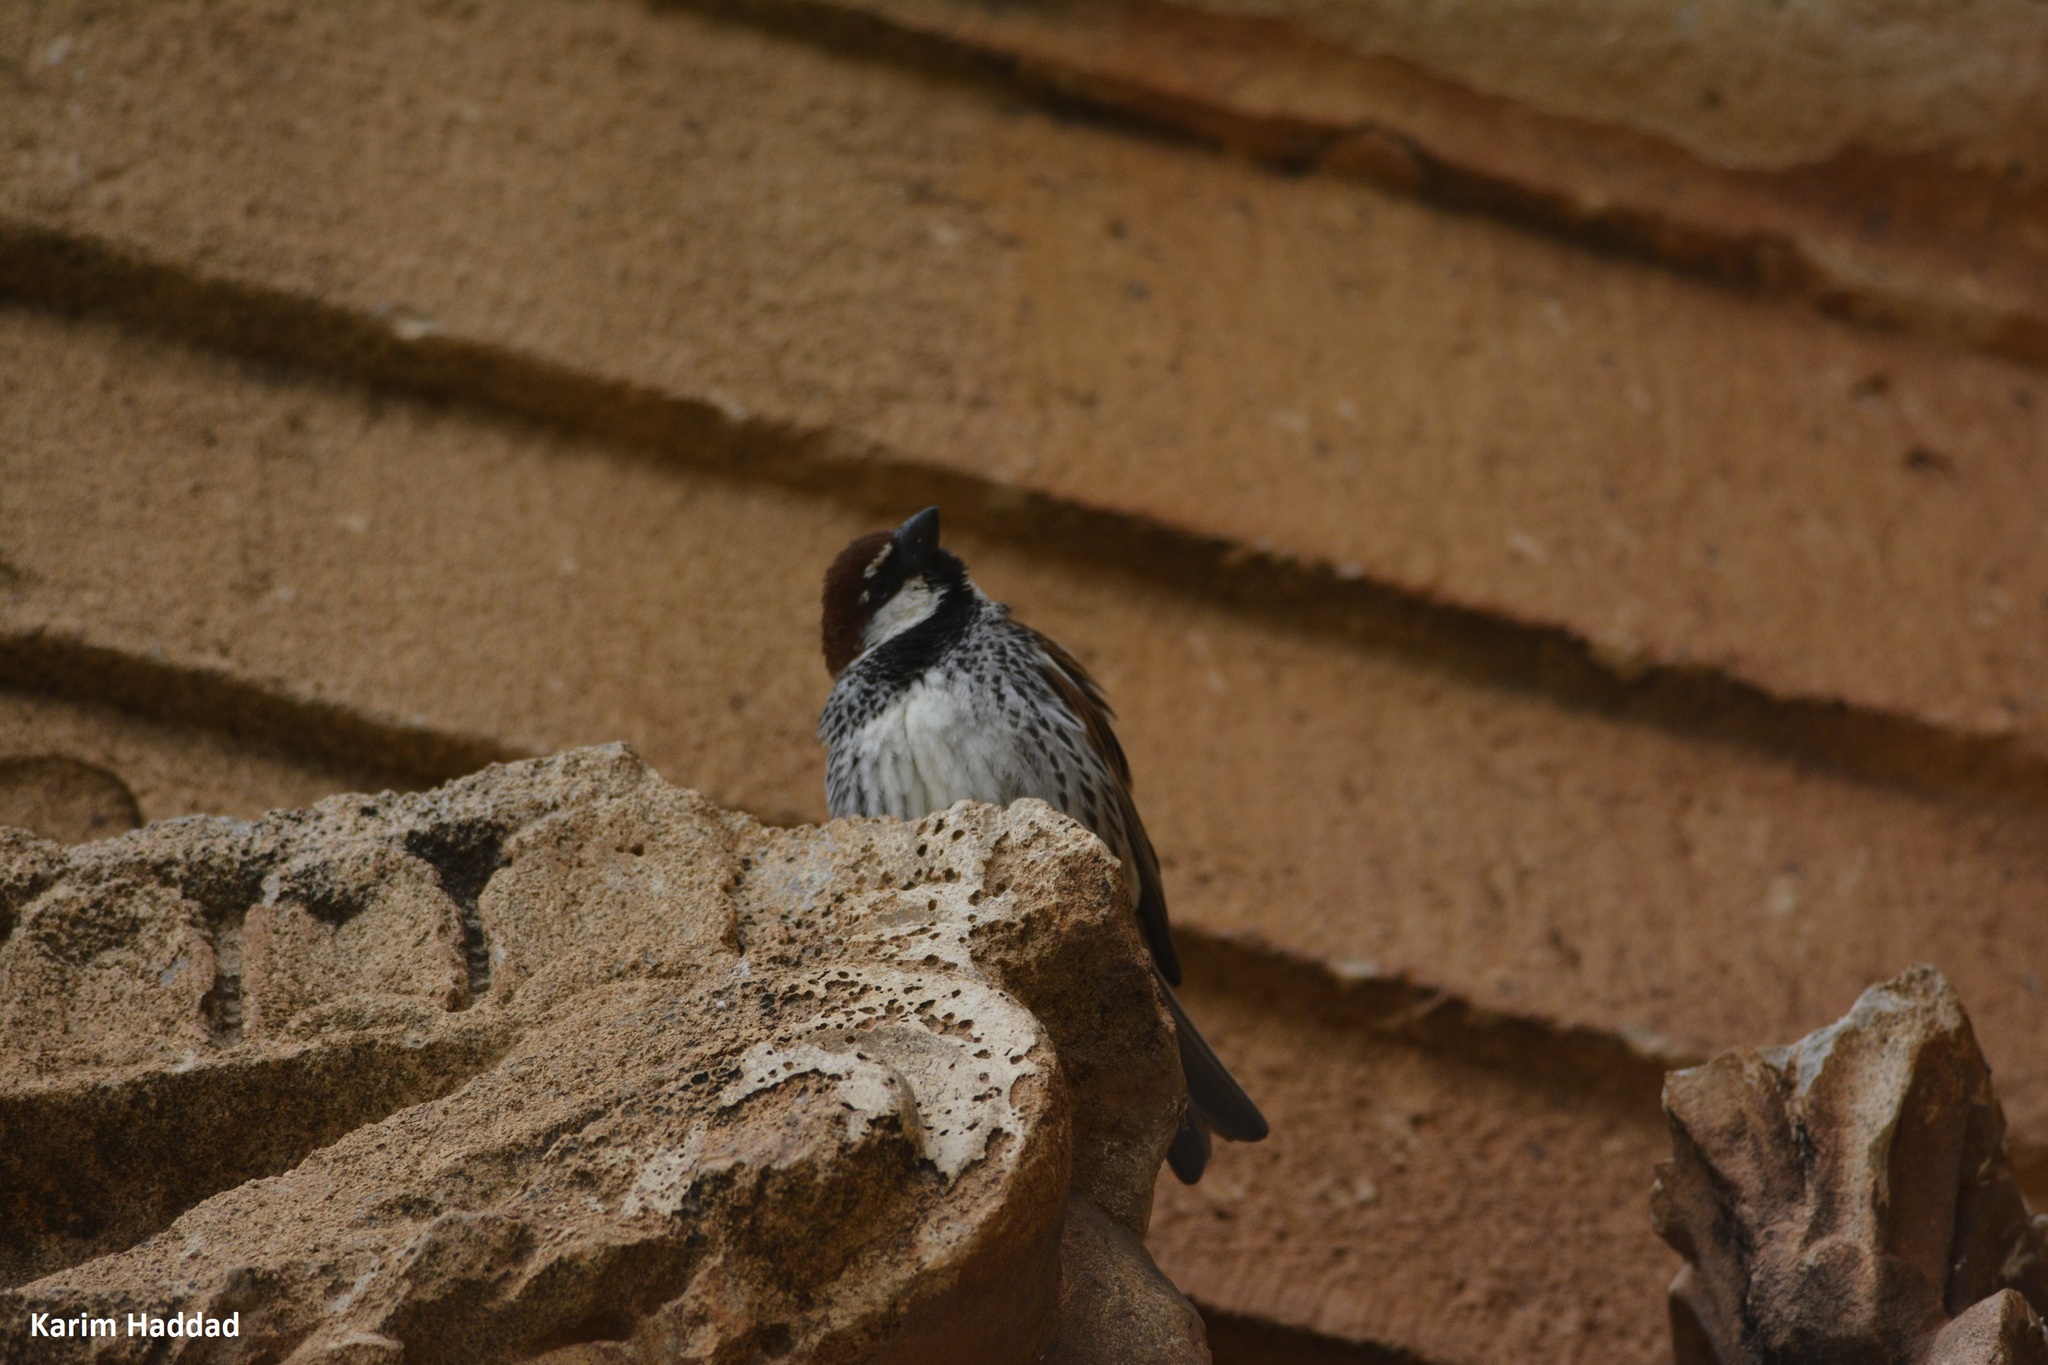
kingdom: Animalia
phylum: Chordata
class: Aves
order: Passeriformes
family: Passeridae
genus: Passer
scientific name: Passer hispaniolensis
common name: Spanish sparrow
